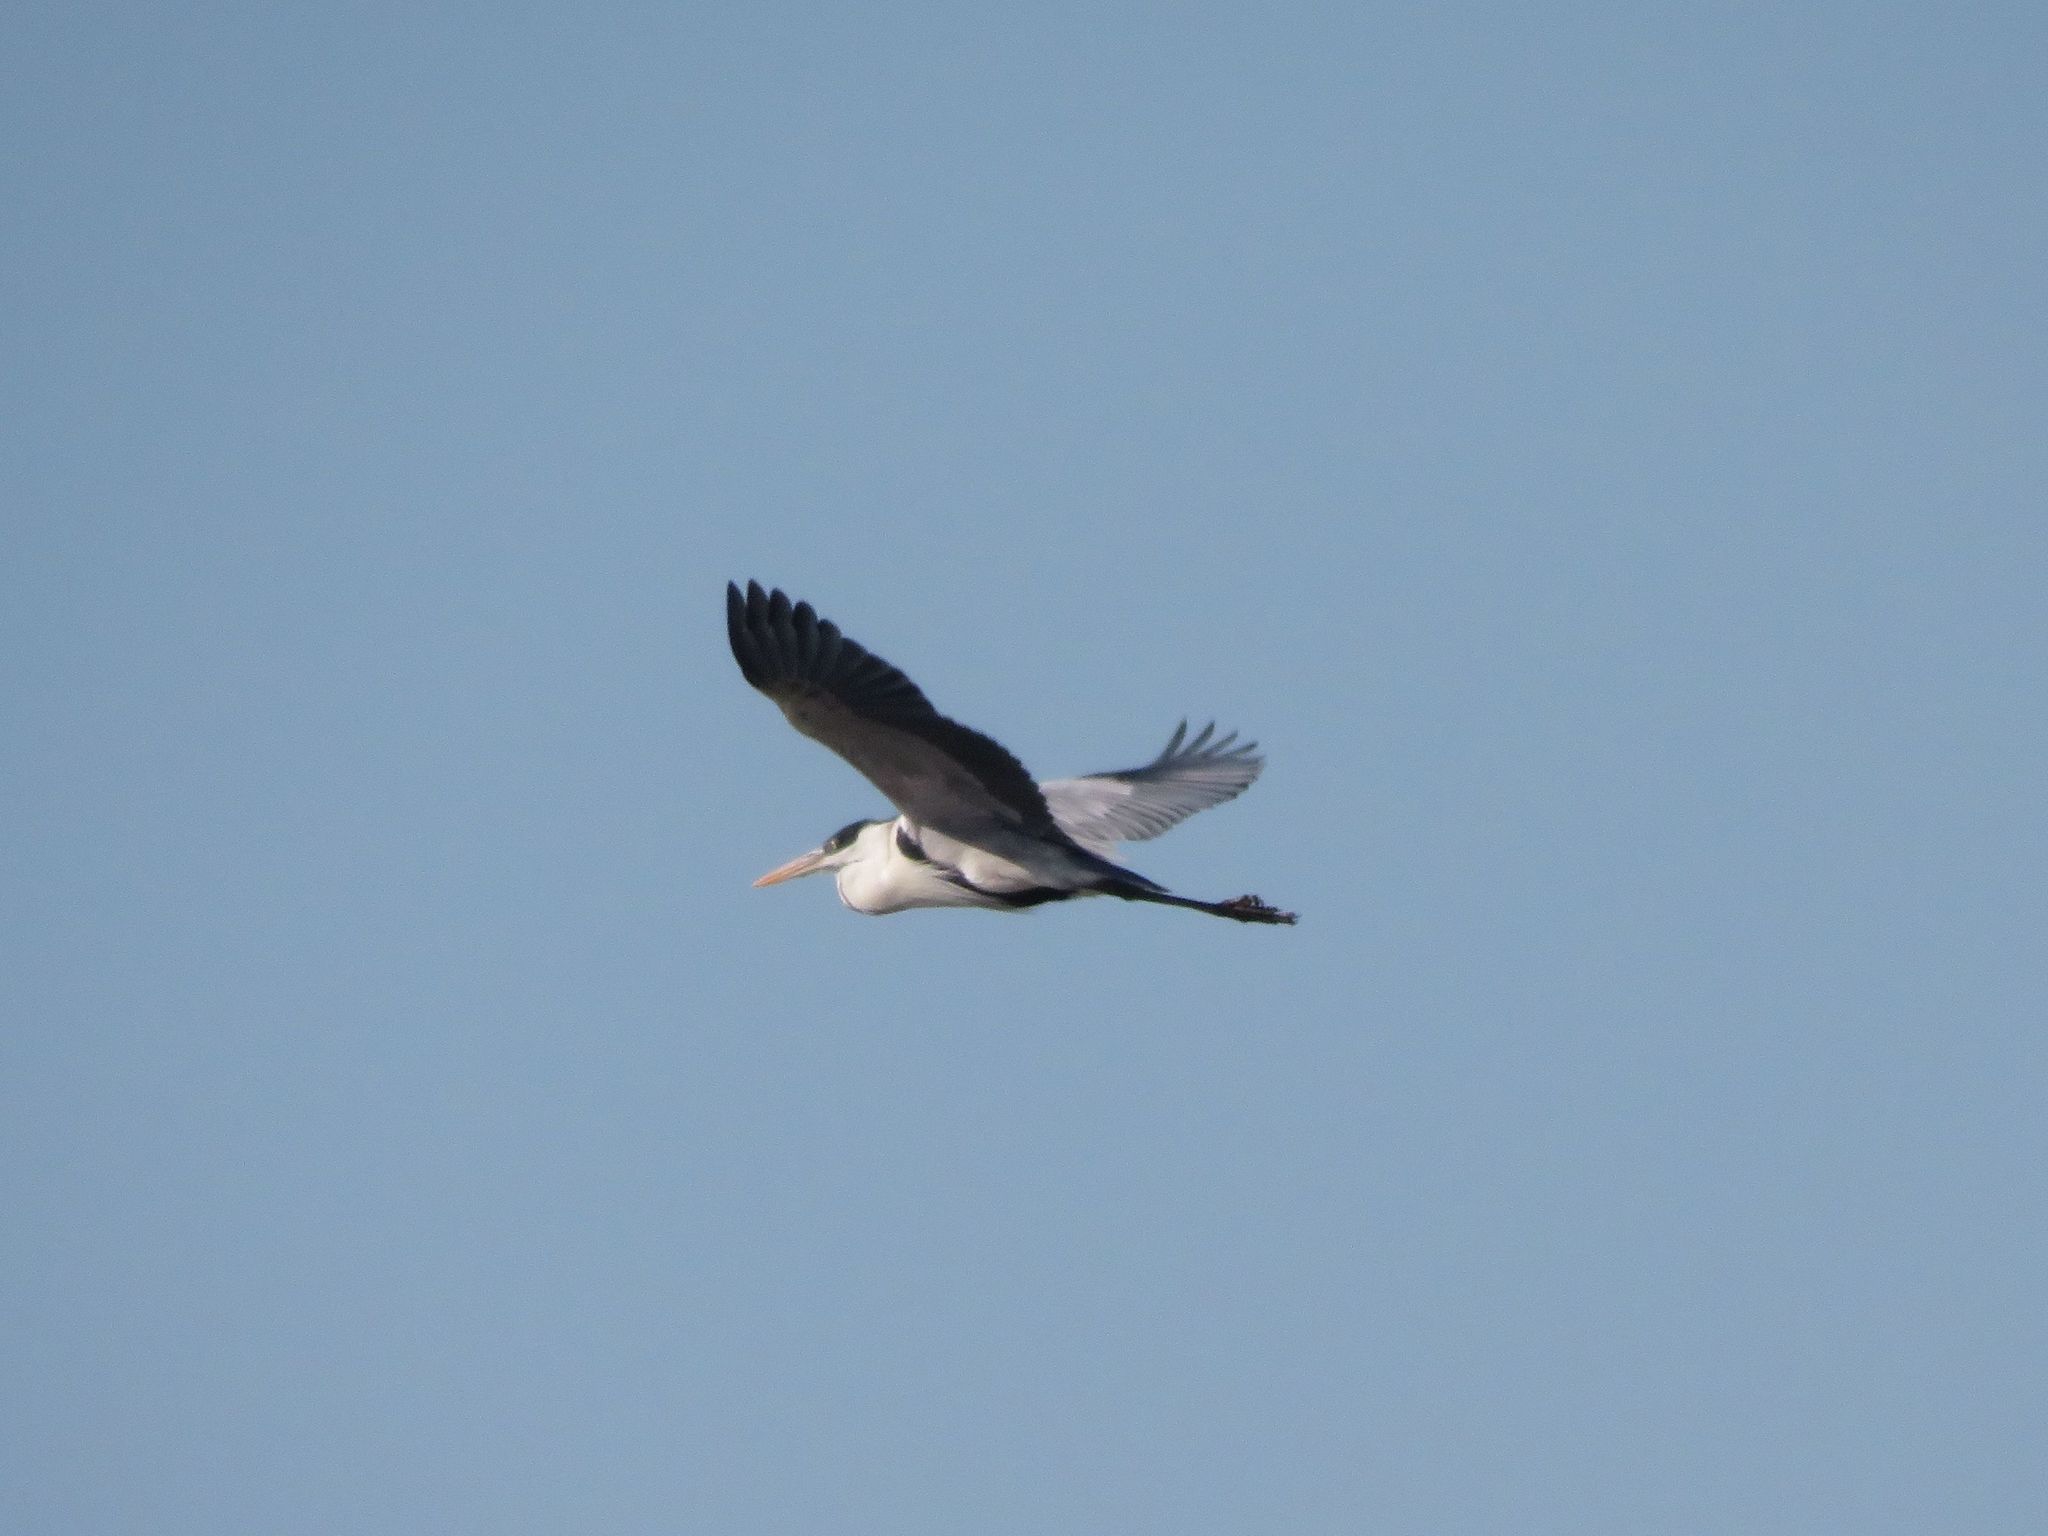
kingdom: Animalia
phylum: Chordata
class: Aves
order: Pelecaniformes
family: Ardeidae
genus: Ardea
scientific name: Ardea cocoi
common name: Cocoi heron
